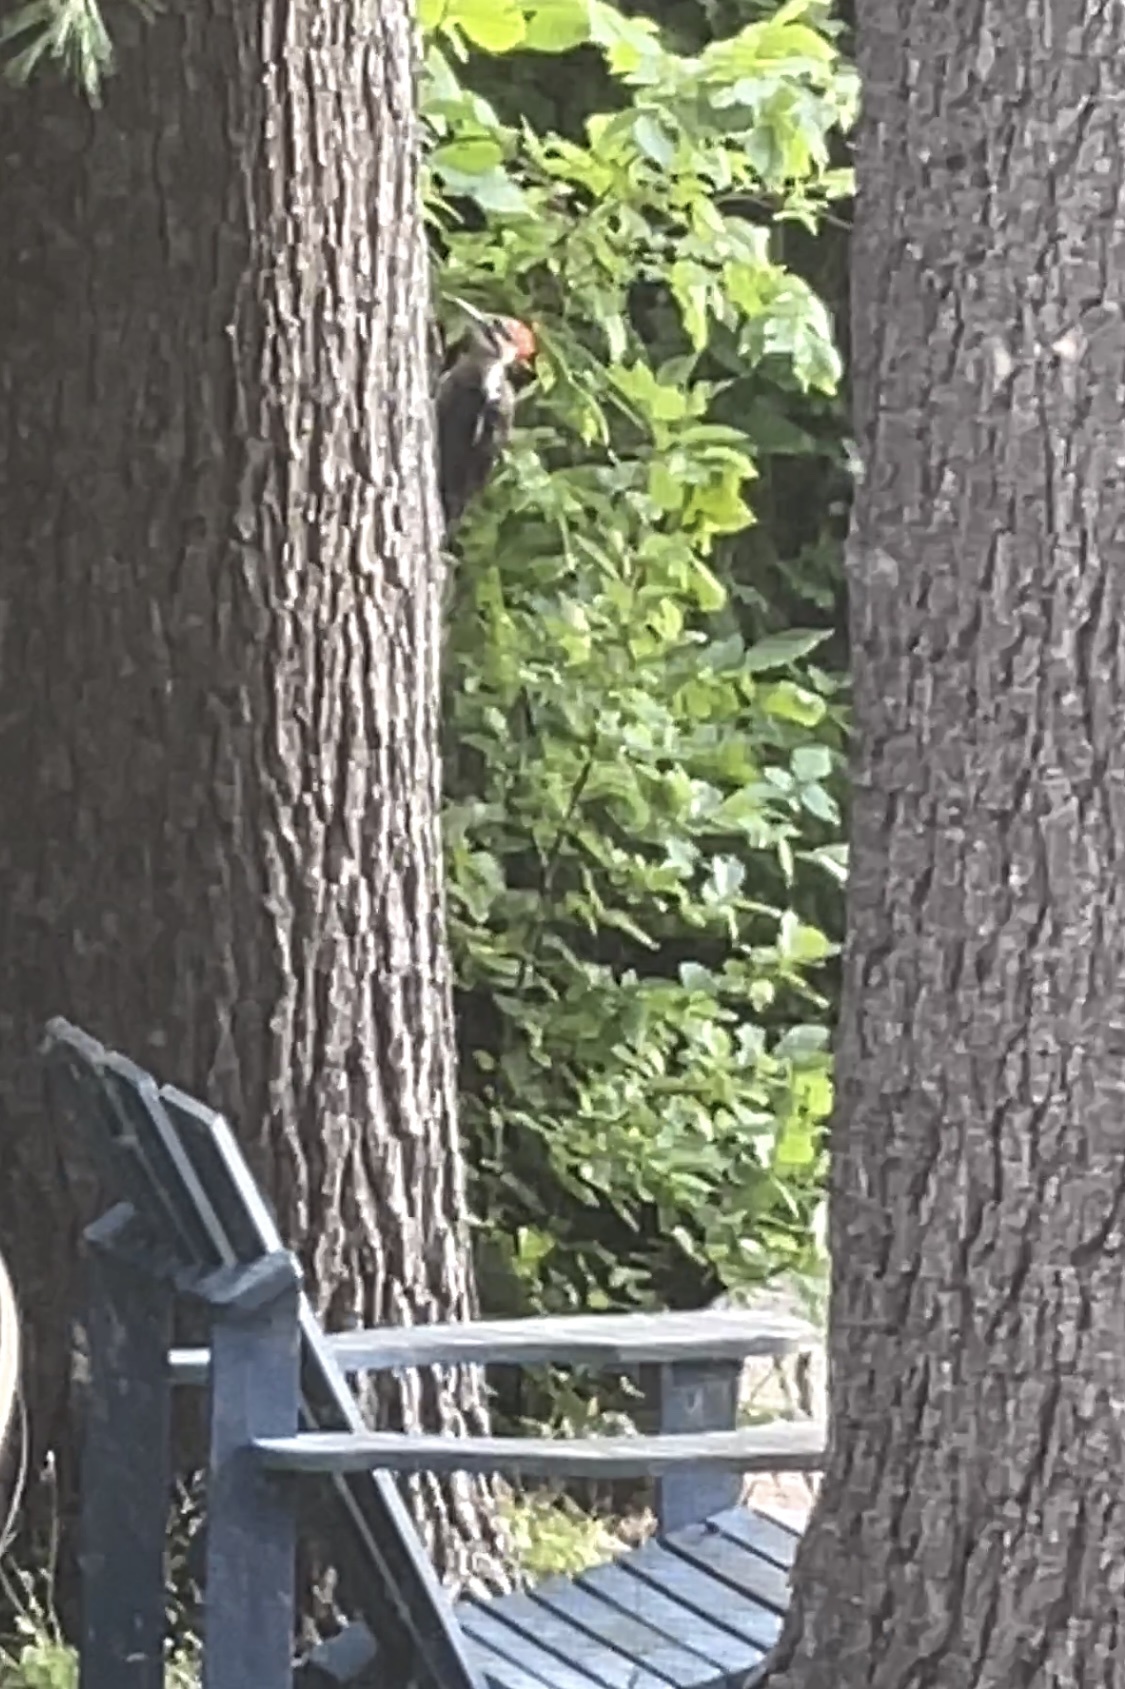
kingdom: Animalia
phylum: Chordata
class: Aves
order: Piciformes
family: Picidae
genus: Dryocopus
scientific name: Dryocopus pileatus
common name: Pileated woodpecker
